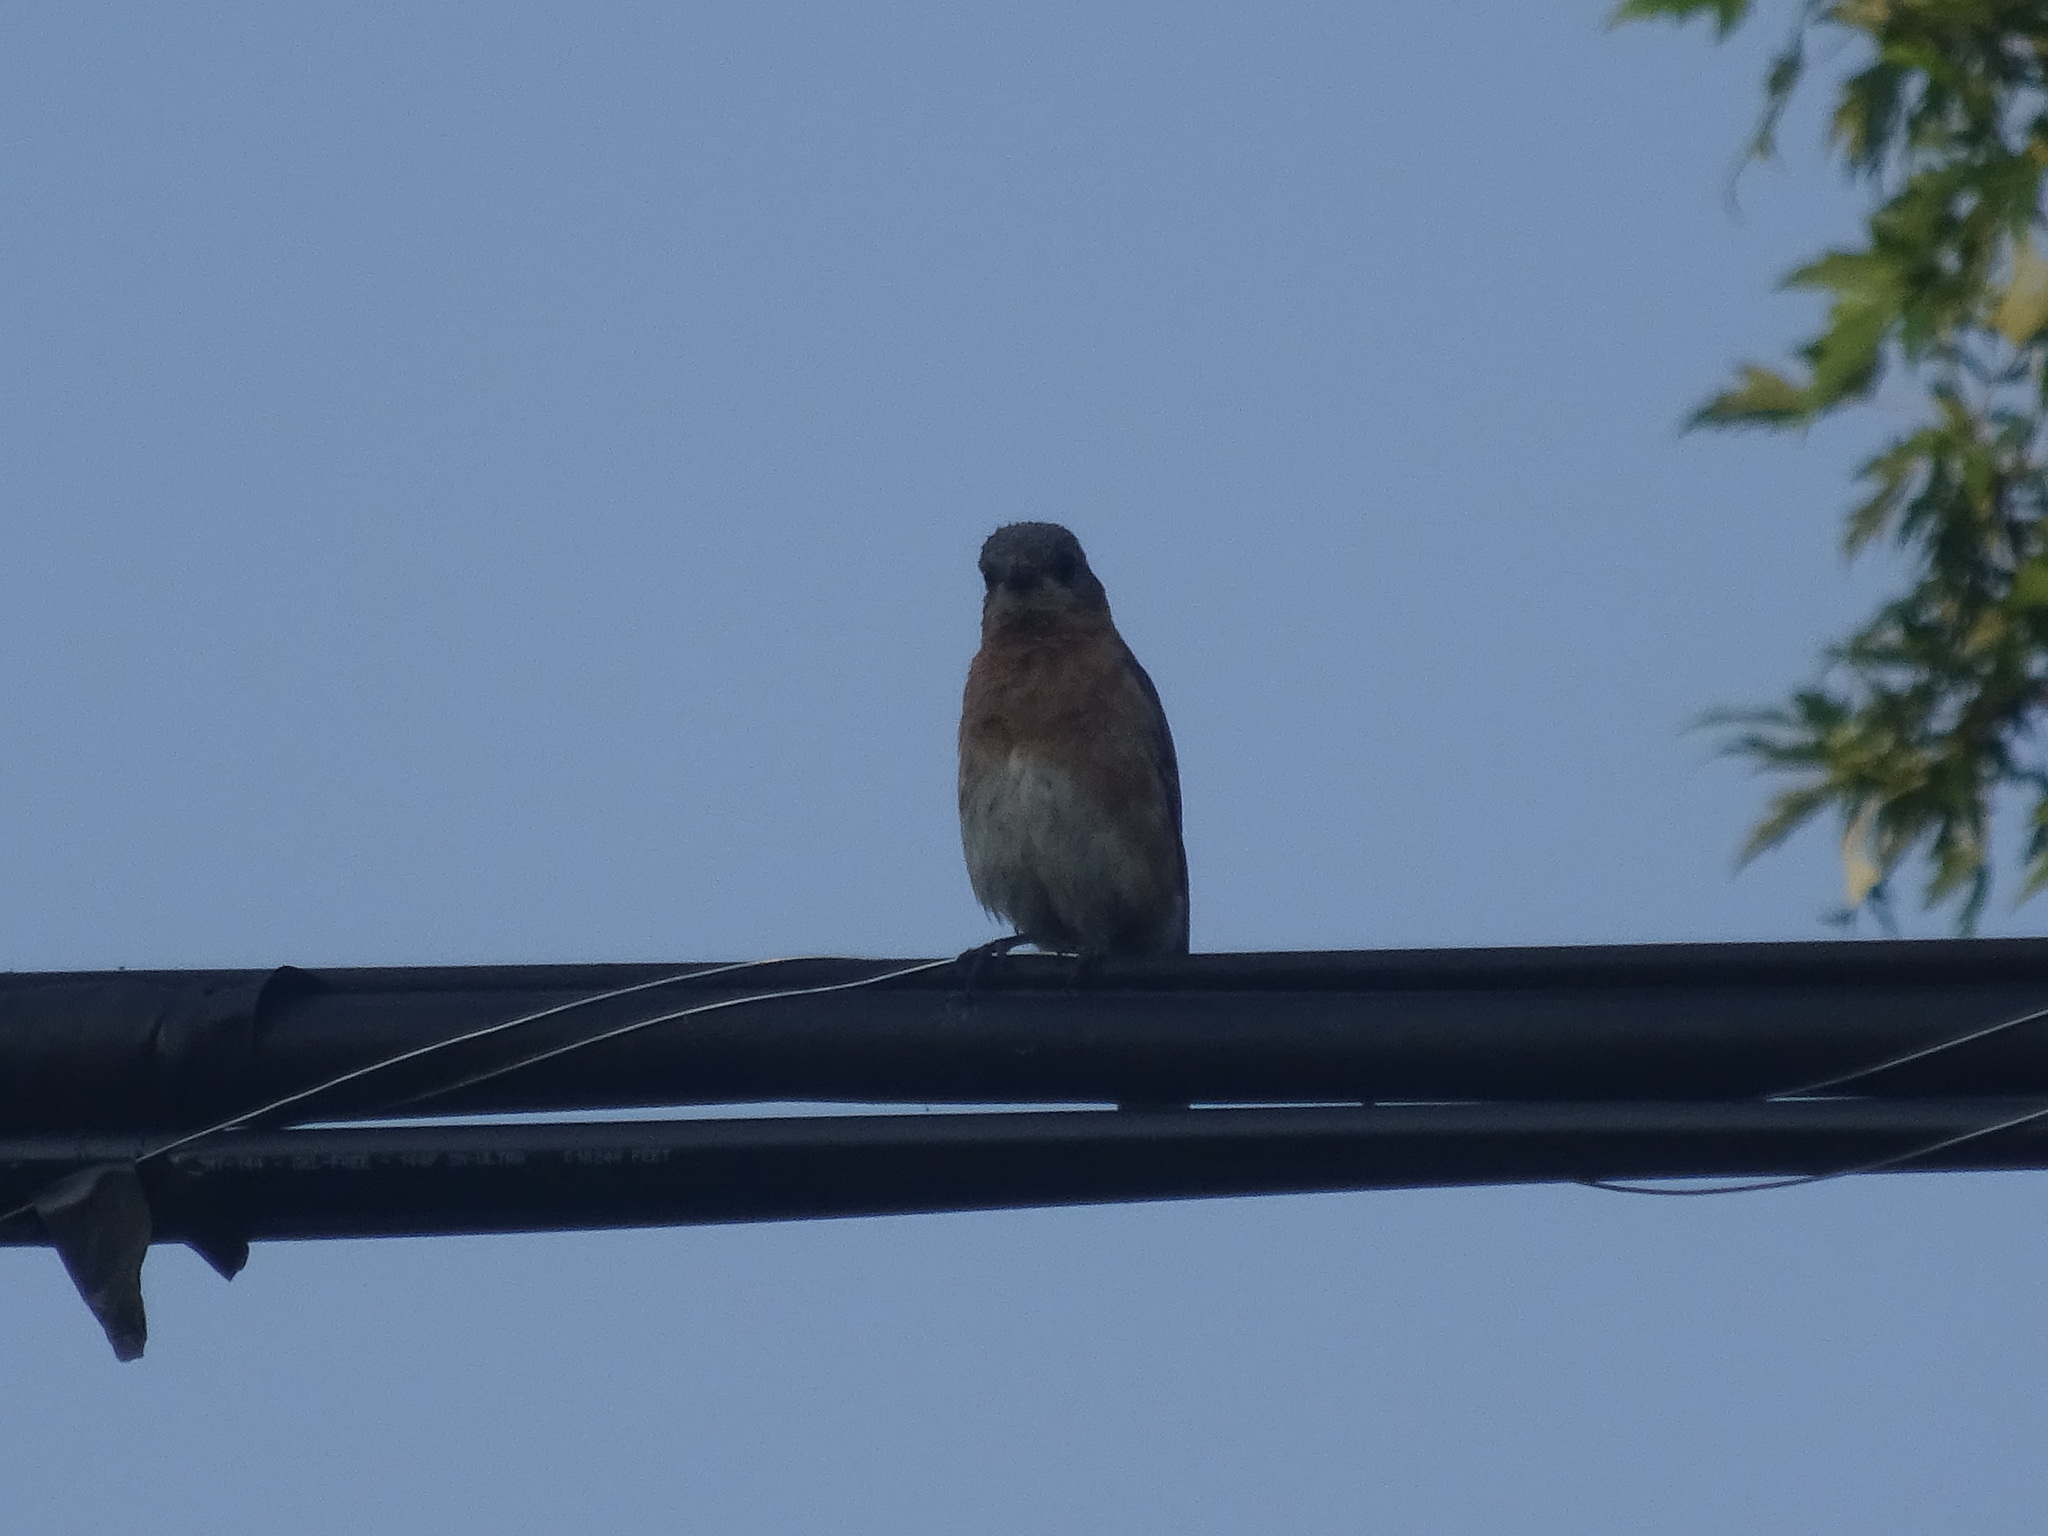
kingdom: Animalia
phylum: Chordata
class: Aves
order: Passeriformes
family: Turdidae
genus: Sialia
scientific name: Sialia sialis
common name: Eastern bluebird
